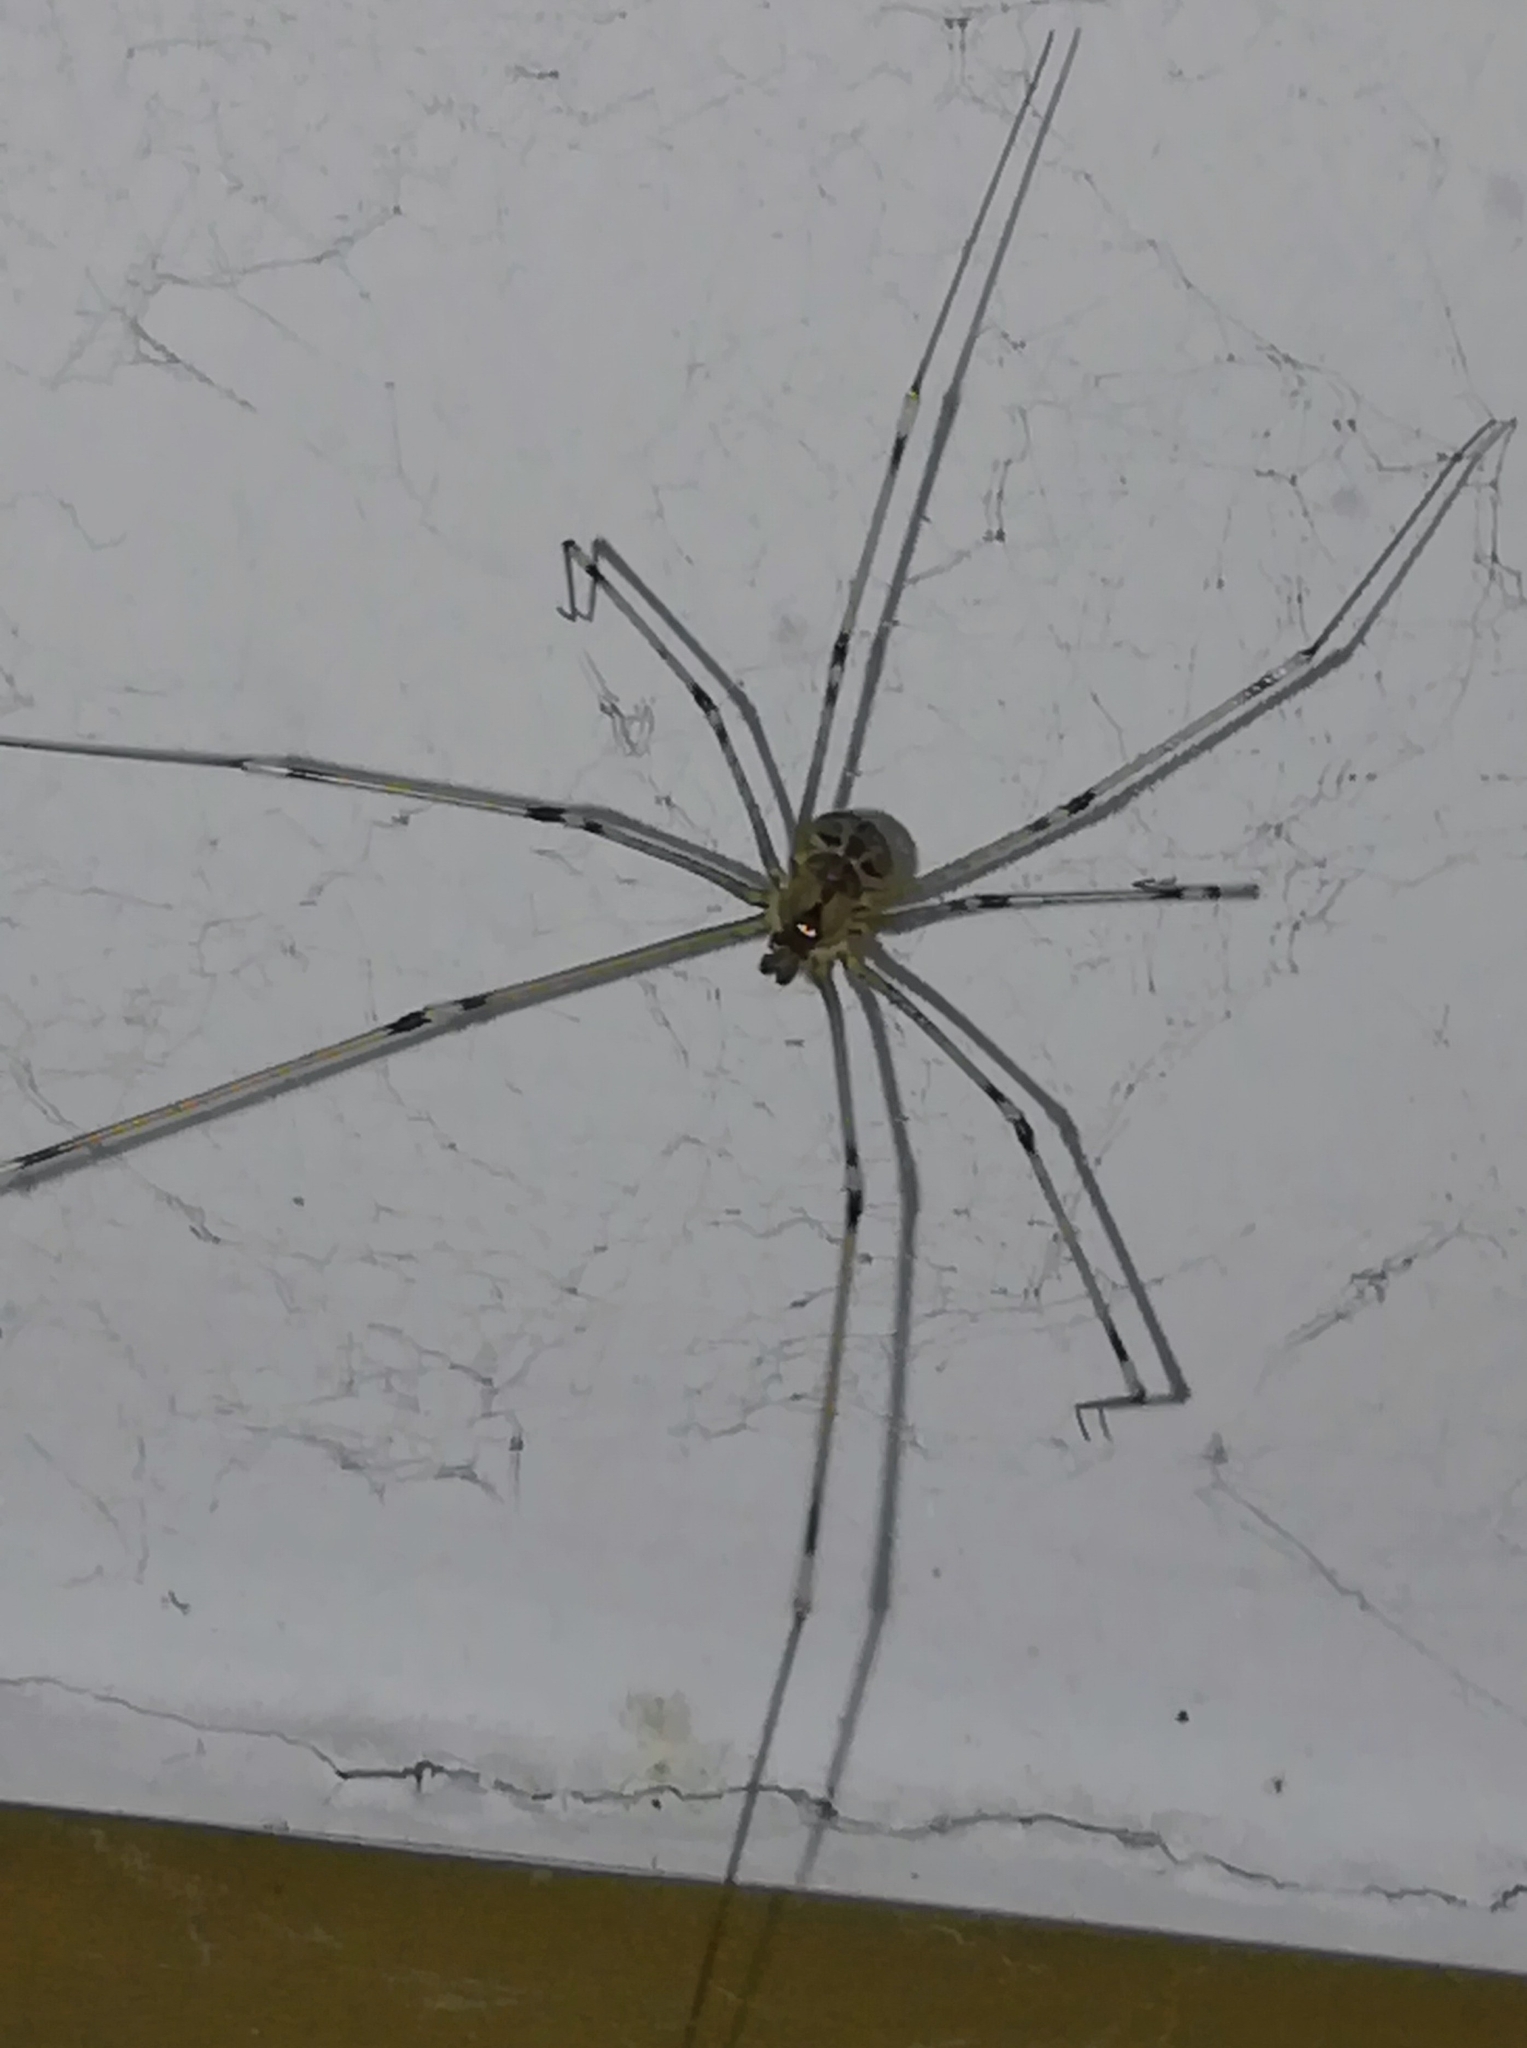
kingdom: Animalia
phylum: Arthropoda
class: Arachnida
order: Araneae
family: Pholcidae
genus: Holocnemus
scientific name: Holocnemus pluchei
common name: Marbled cellar spider
